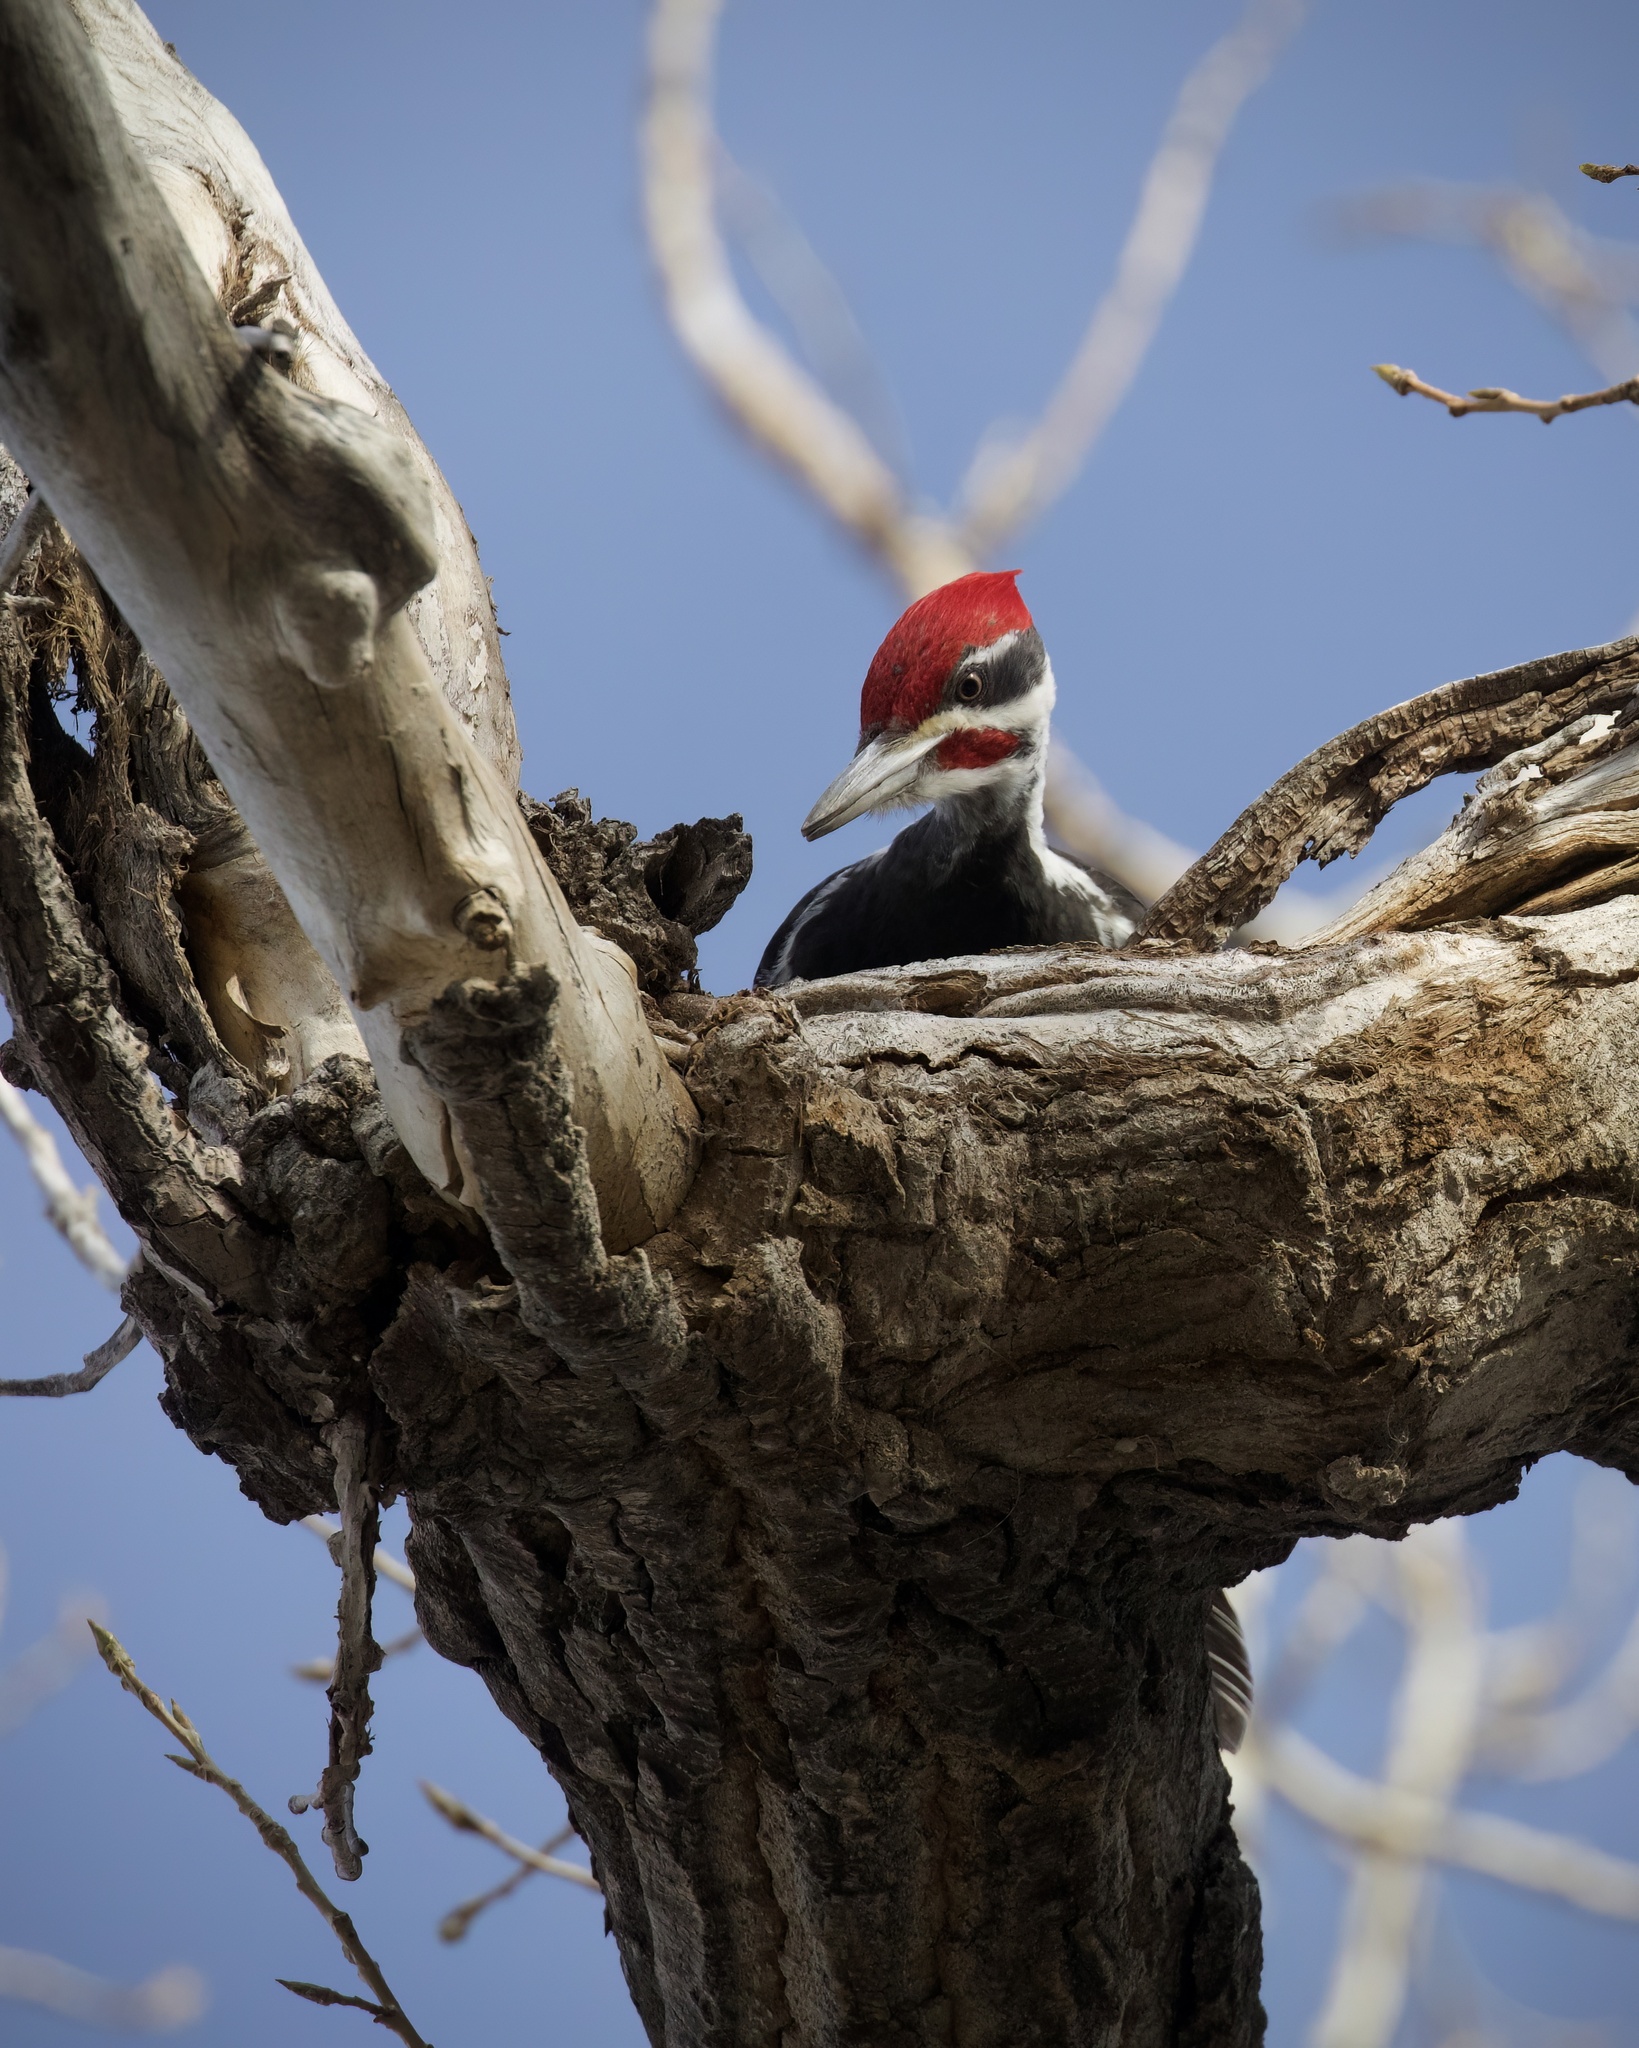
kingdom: Animalia
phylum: Chordata
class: Aves
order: Piciformes
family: Picidae
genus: Dryocopus
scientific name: Dryocopus pileatus
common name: Pileated woodpecker
